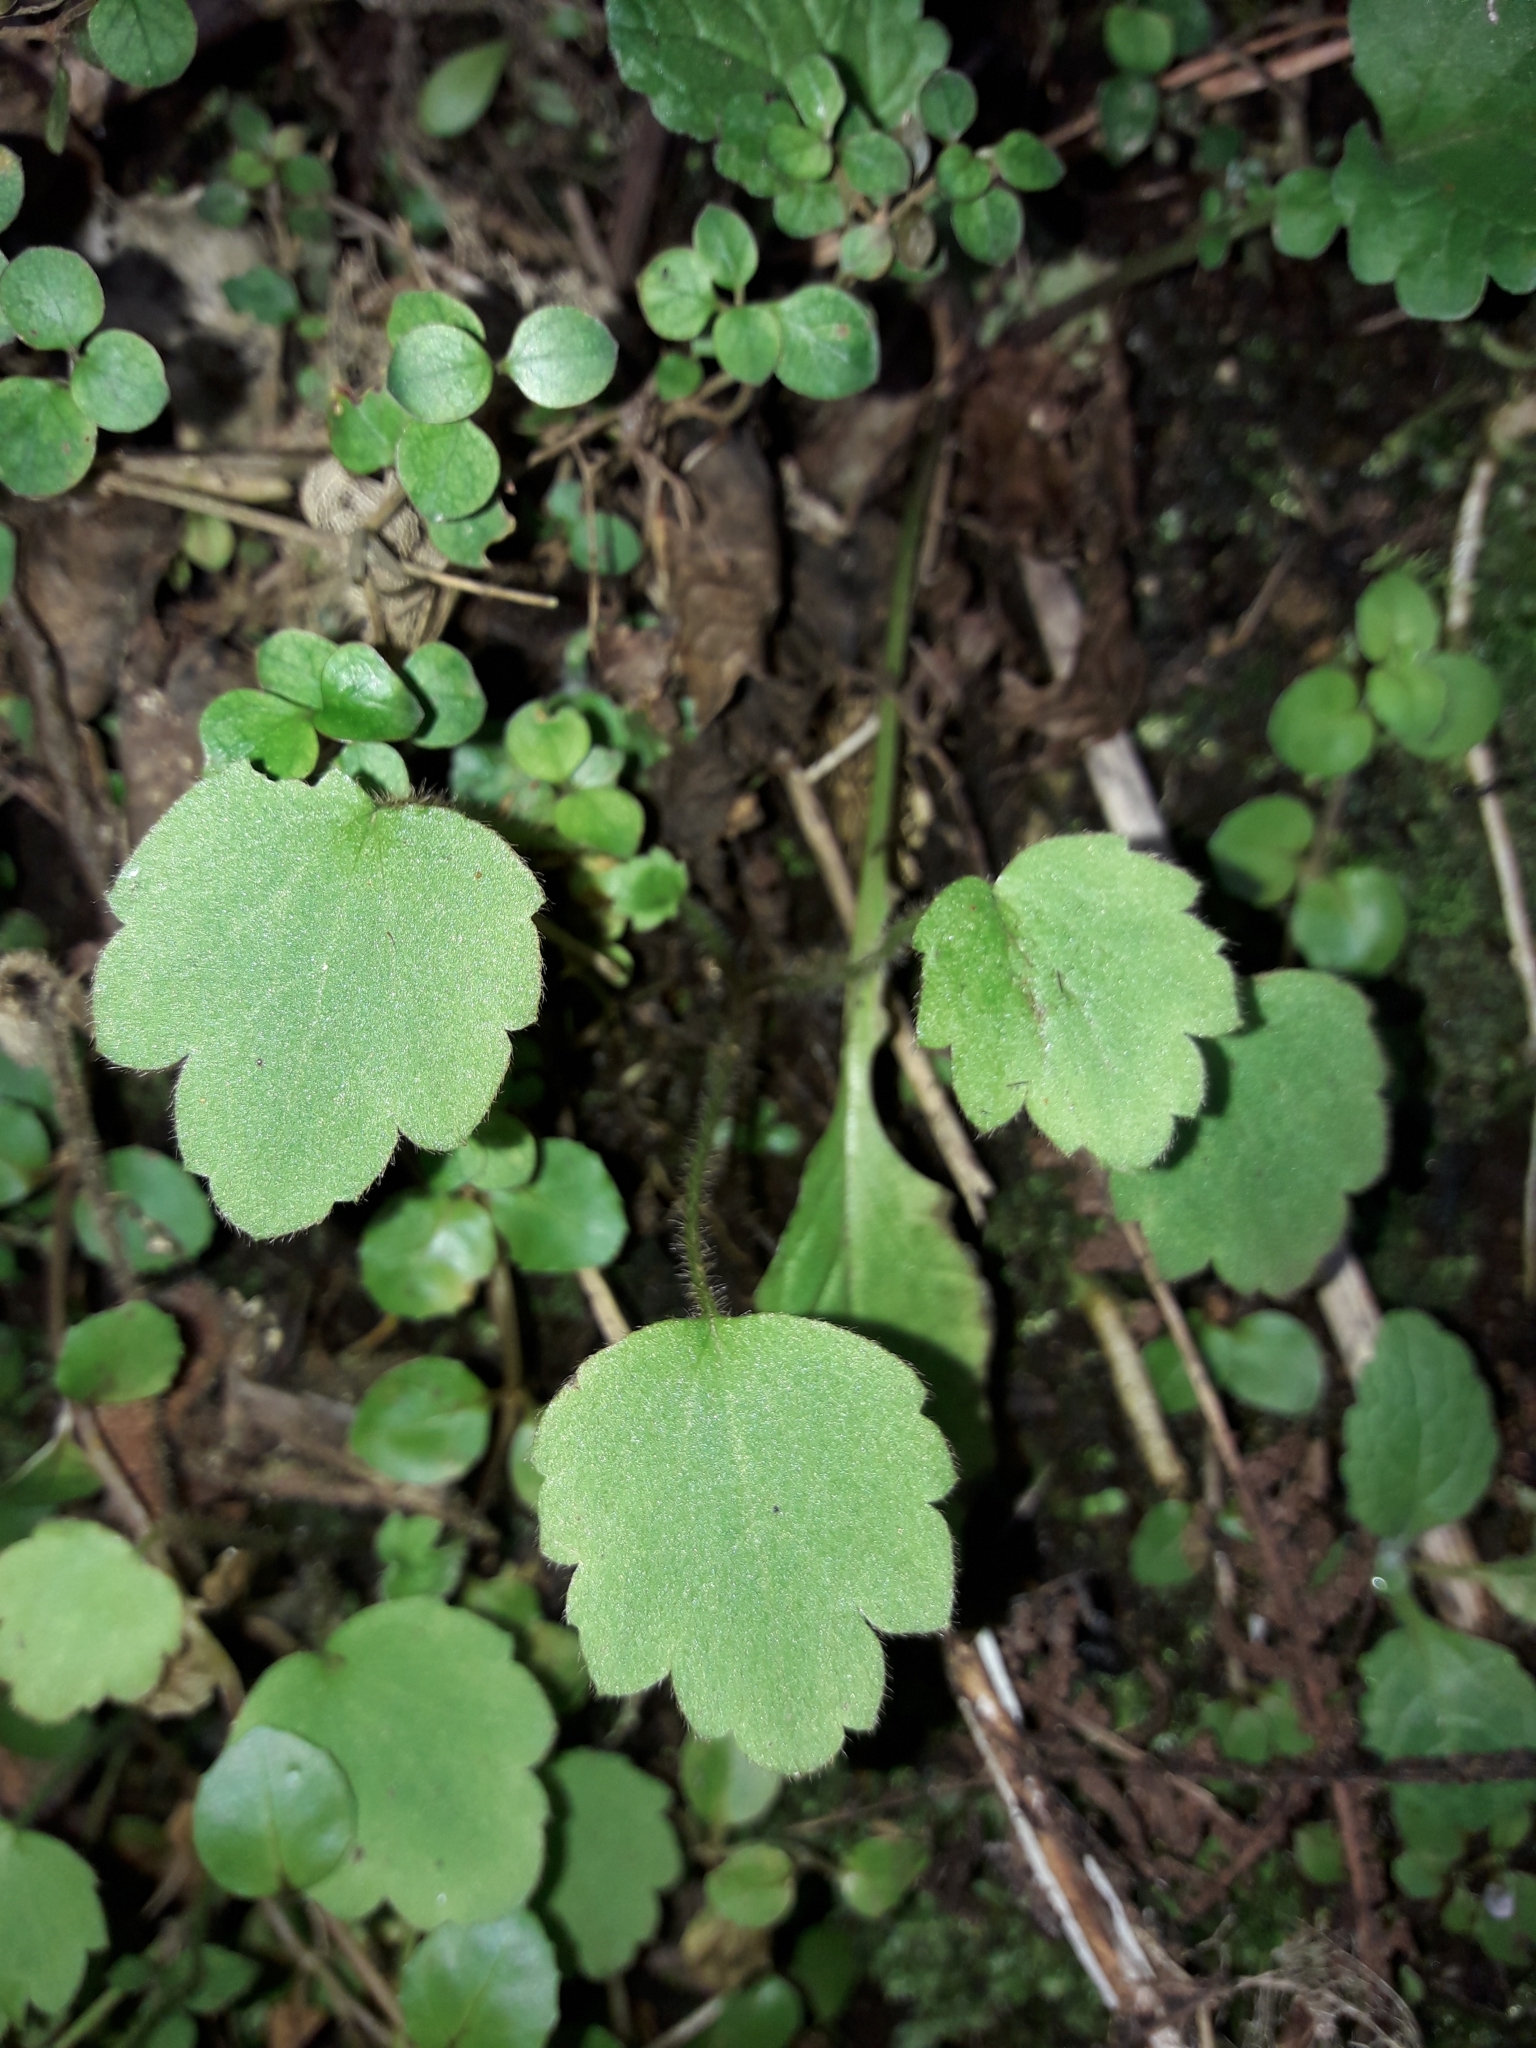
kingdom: Plantae
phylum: Tracheophyta
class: Magnoliopsida
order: Ranunculales
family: Ranunculaceae
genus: Ranunculus
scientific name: Ranunculus reflexus
